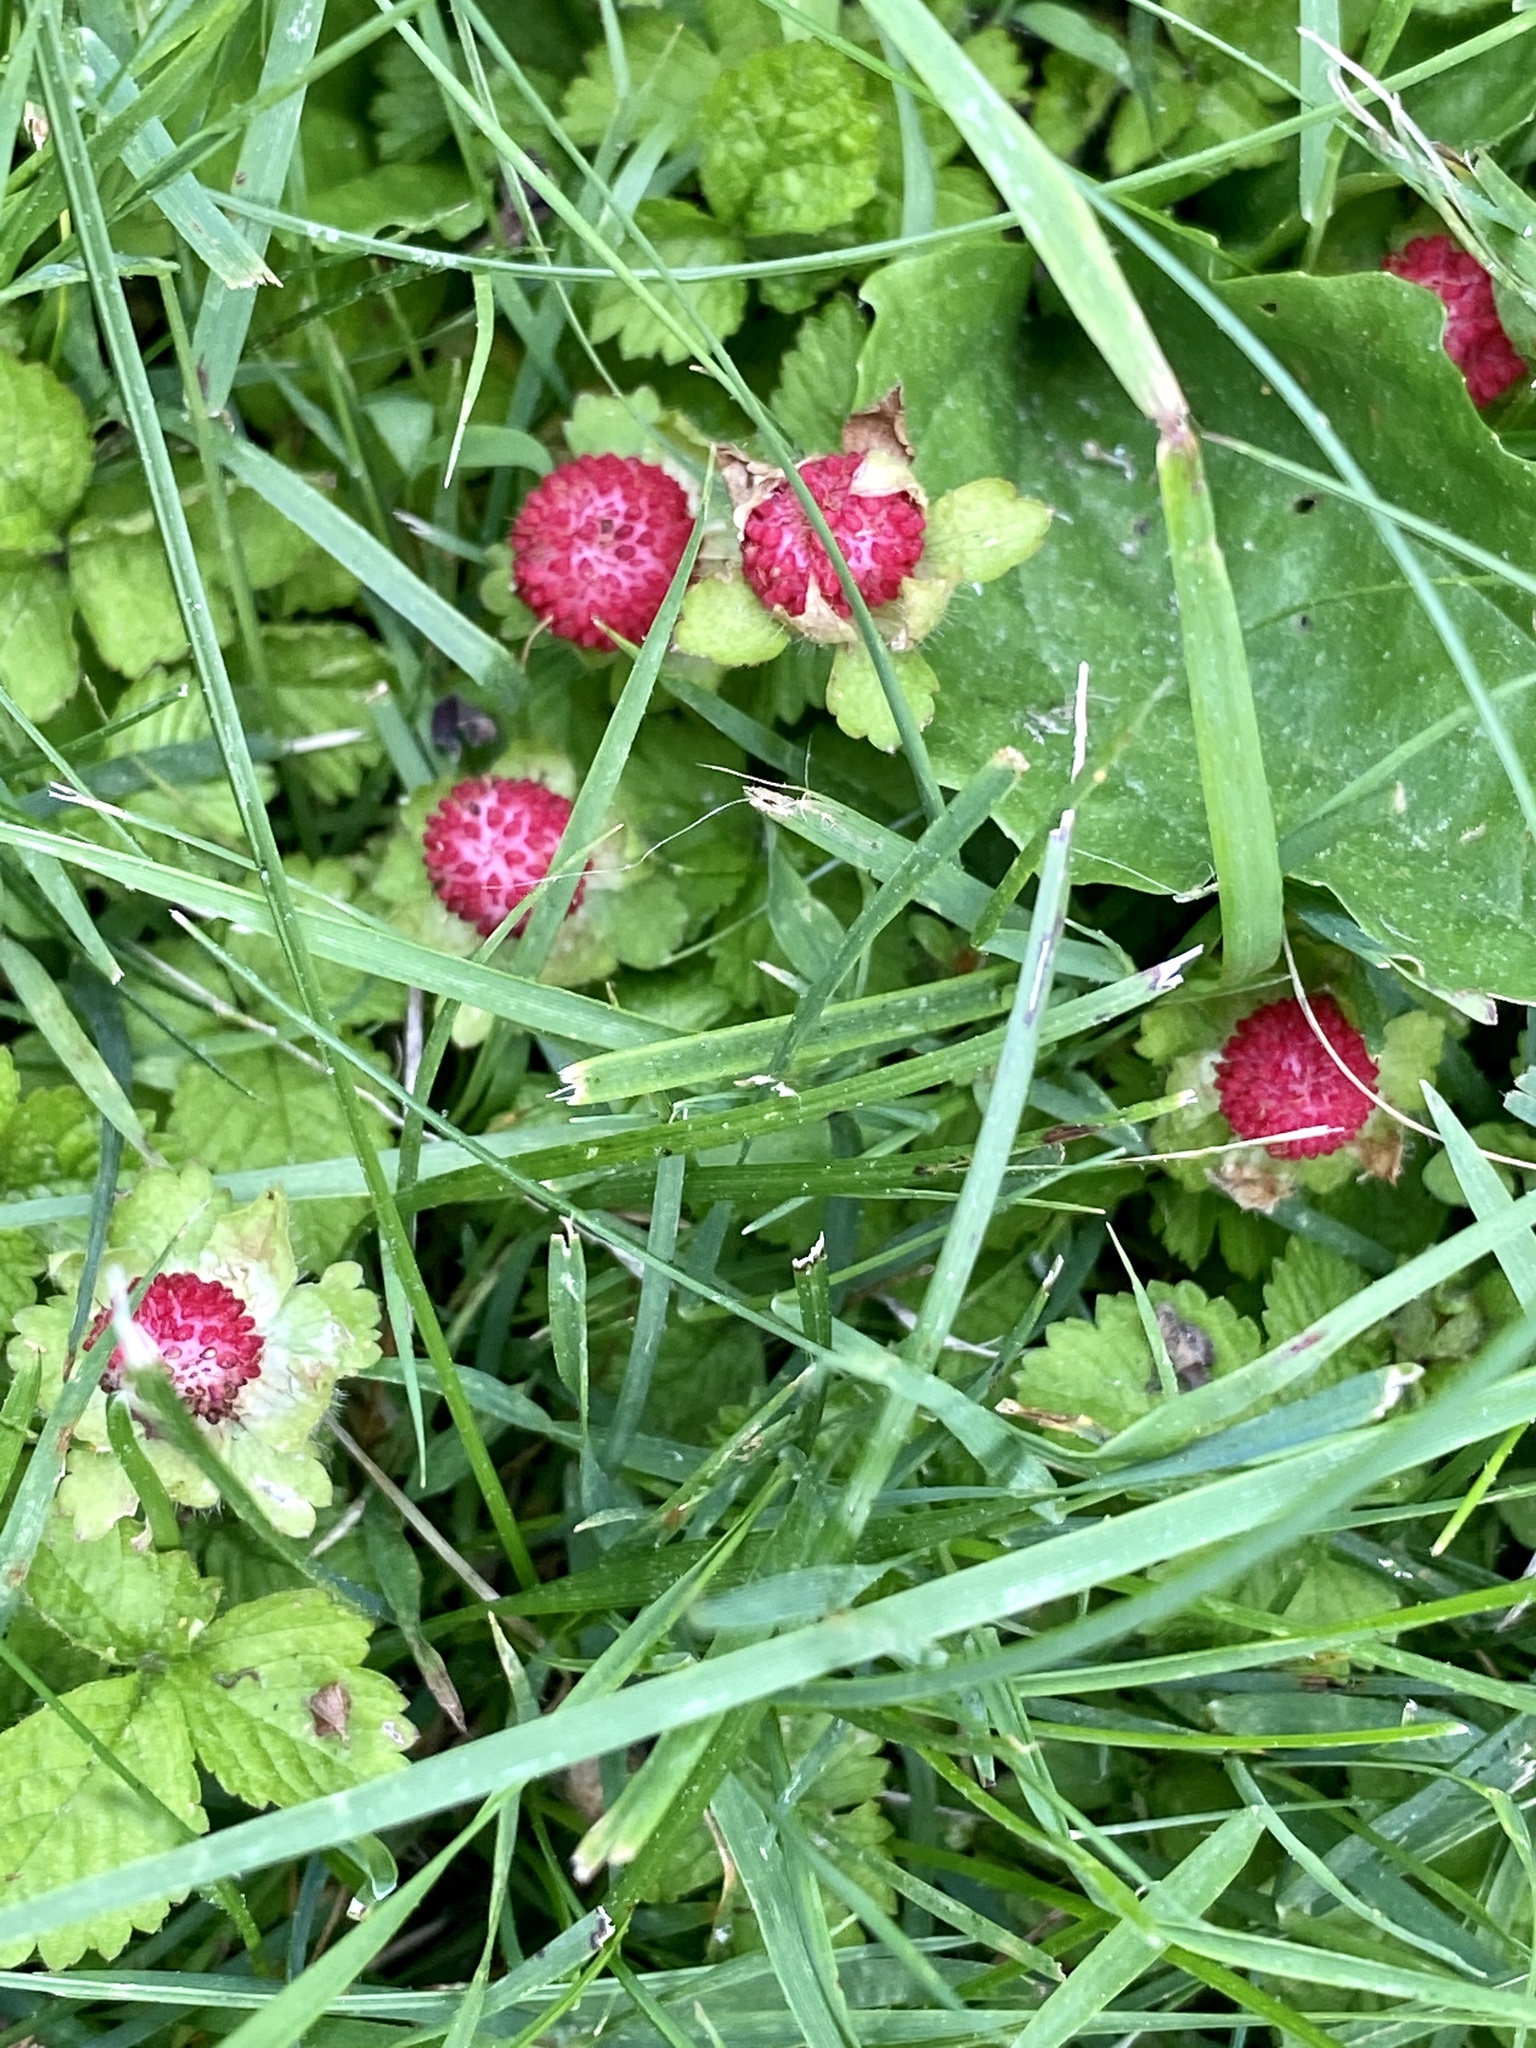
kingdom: Plantae
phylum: Tracheophyta
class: Magnoliopsida
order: Rosales
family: Rosaceae
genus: Potentilla
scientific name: Potentilla indica
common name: Yellow-flowered strawberry
